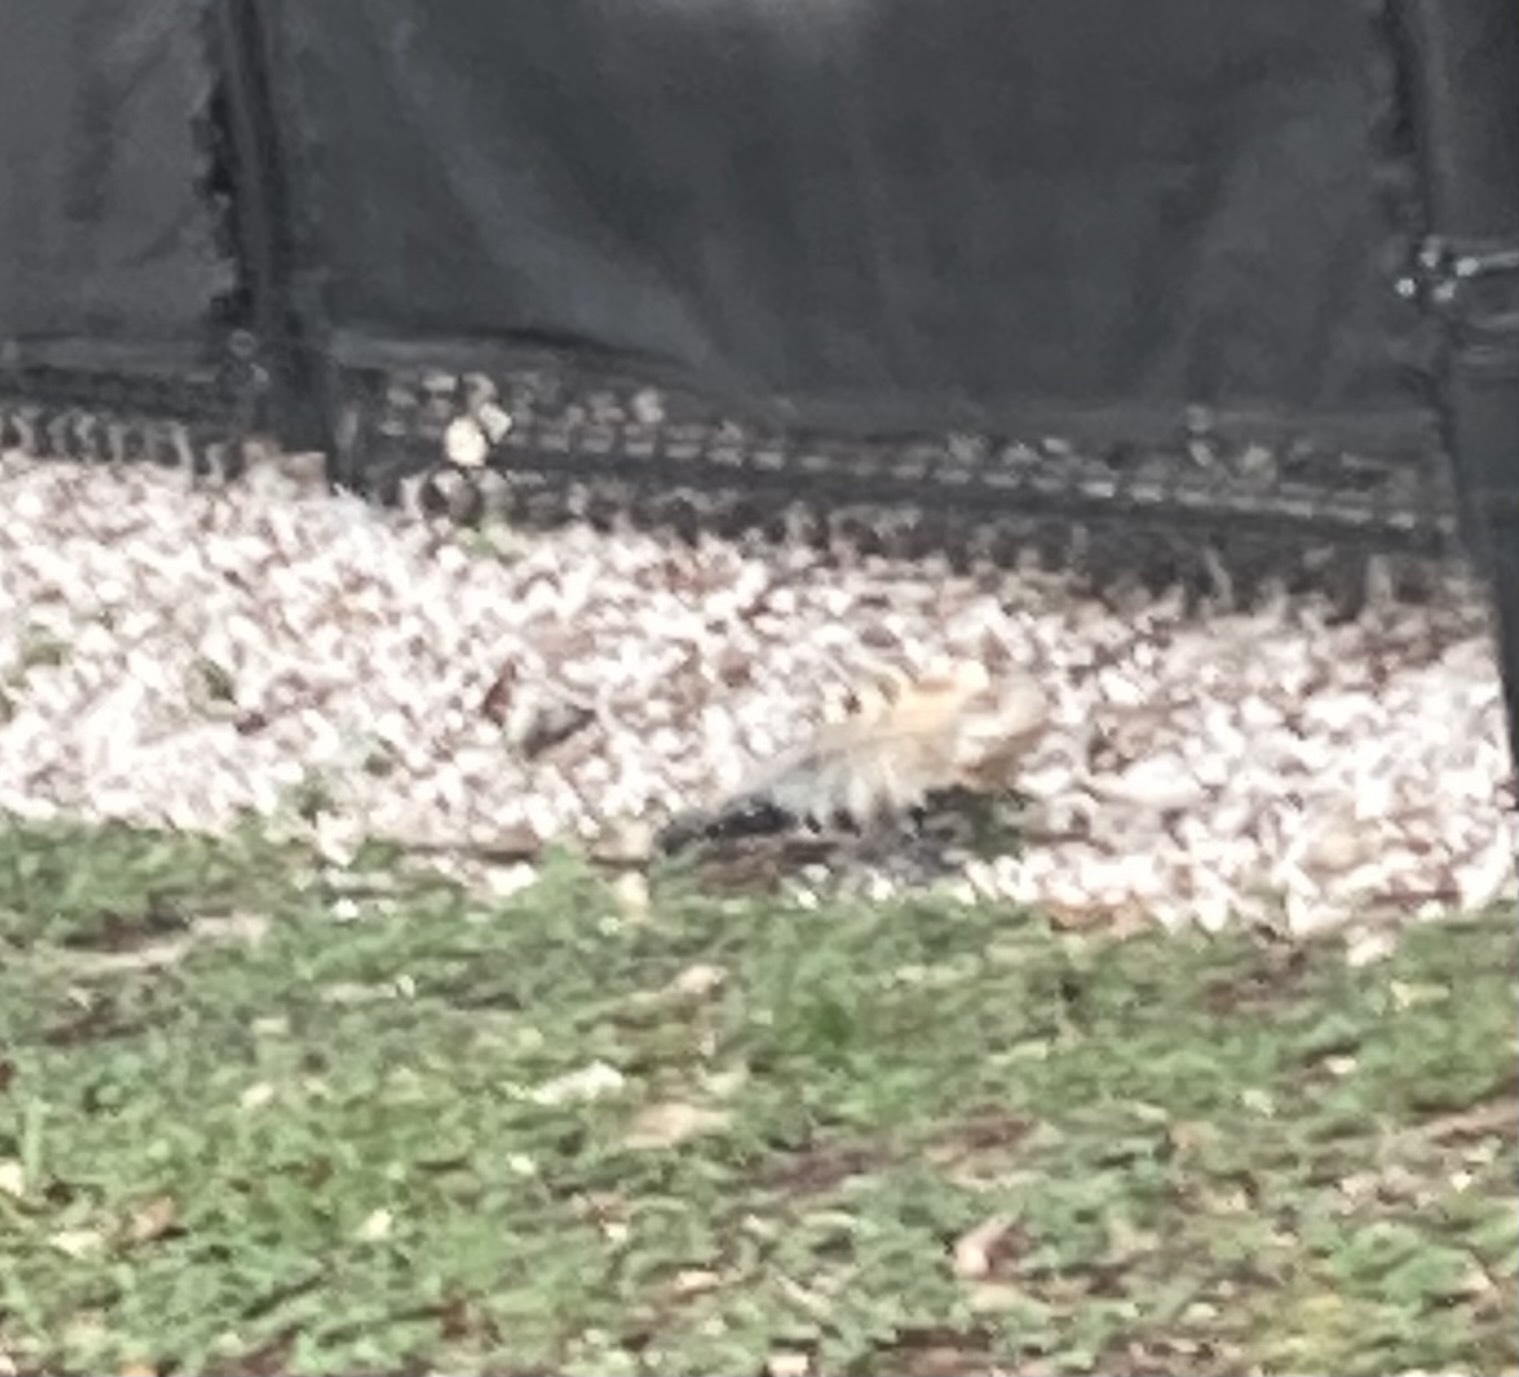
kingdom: Animalia
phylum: Chordata
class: Squamata
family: Iguanidae
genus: Ctenosaura
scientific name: Ctenosaura similis
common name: Black spiny-tailed iguana
